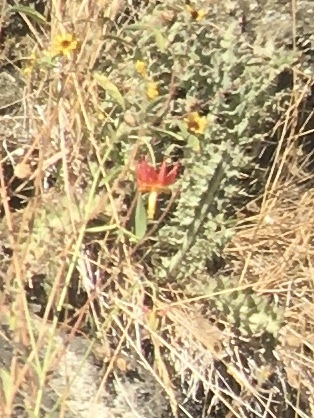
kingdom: Plantae
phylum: Tracheophyta
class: Magnoliopsida
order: Ranunculales
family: Ranunculaceae
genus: Aquilegia
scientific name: Aquilegia eximia
